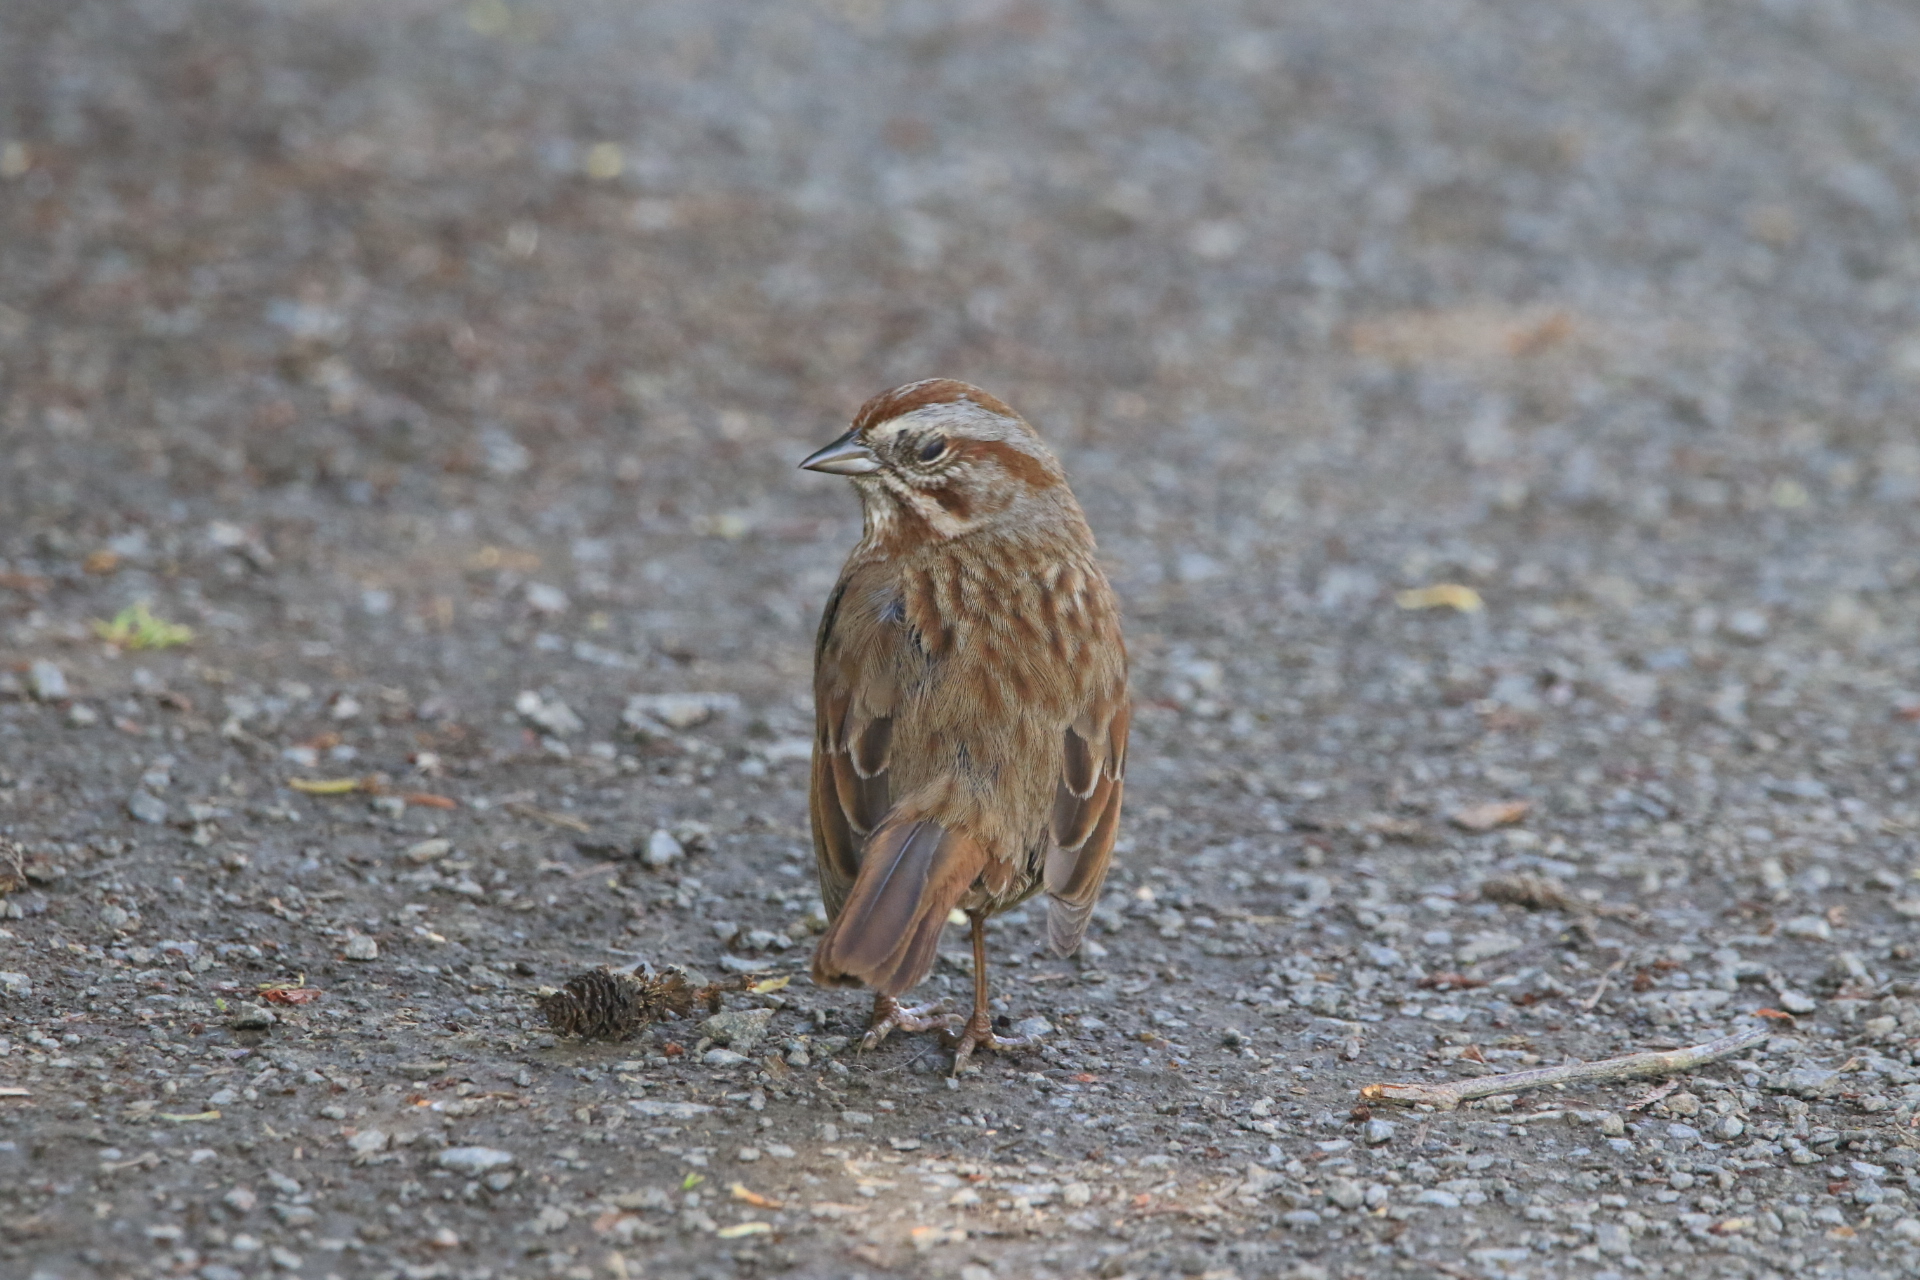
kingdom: Animalia
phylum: Chordata
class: Aves
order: Passeriformes
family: Passerellidae
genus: Melospiza
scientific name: Melospiza melodia
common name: Song sparrow
